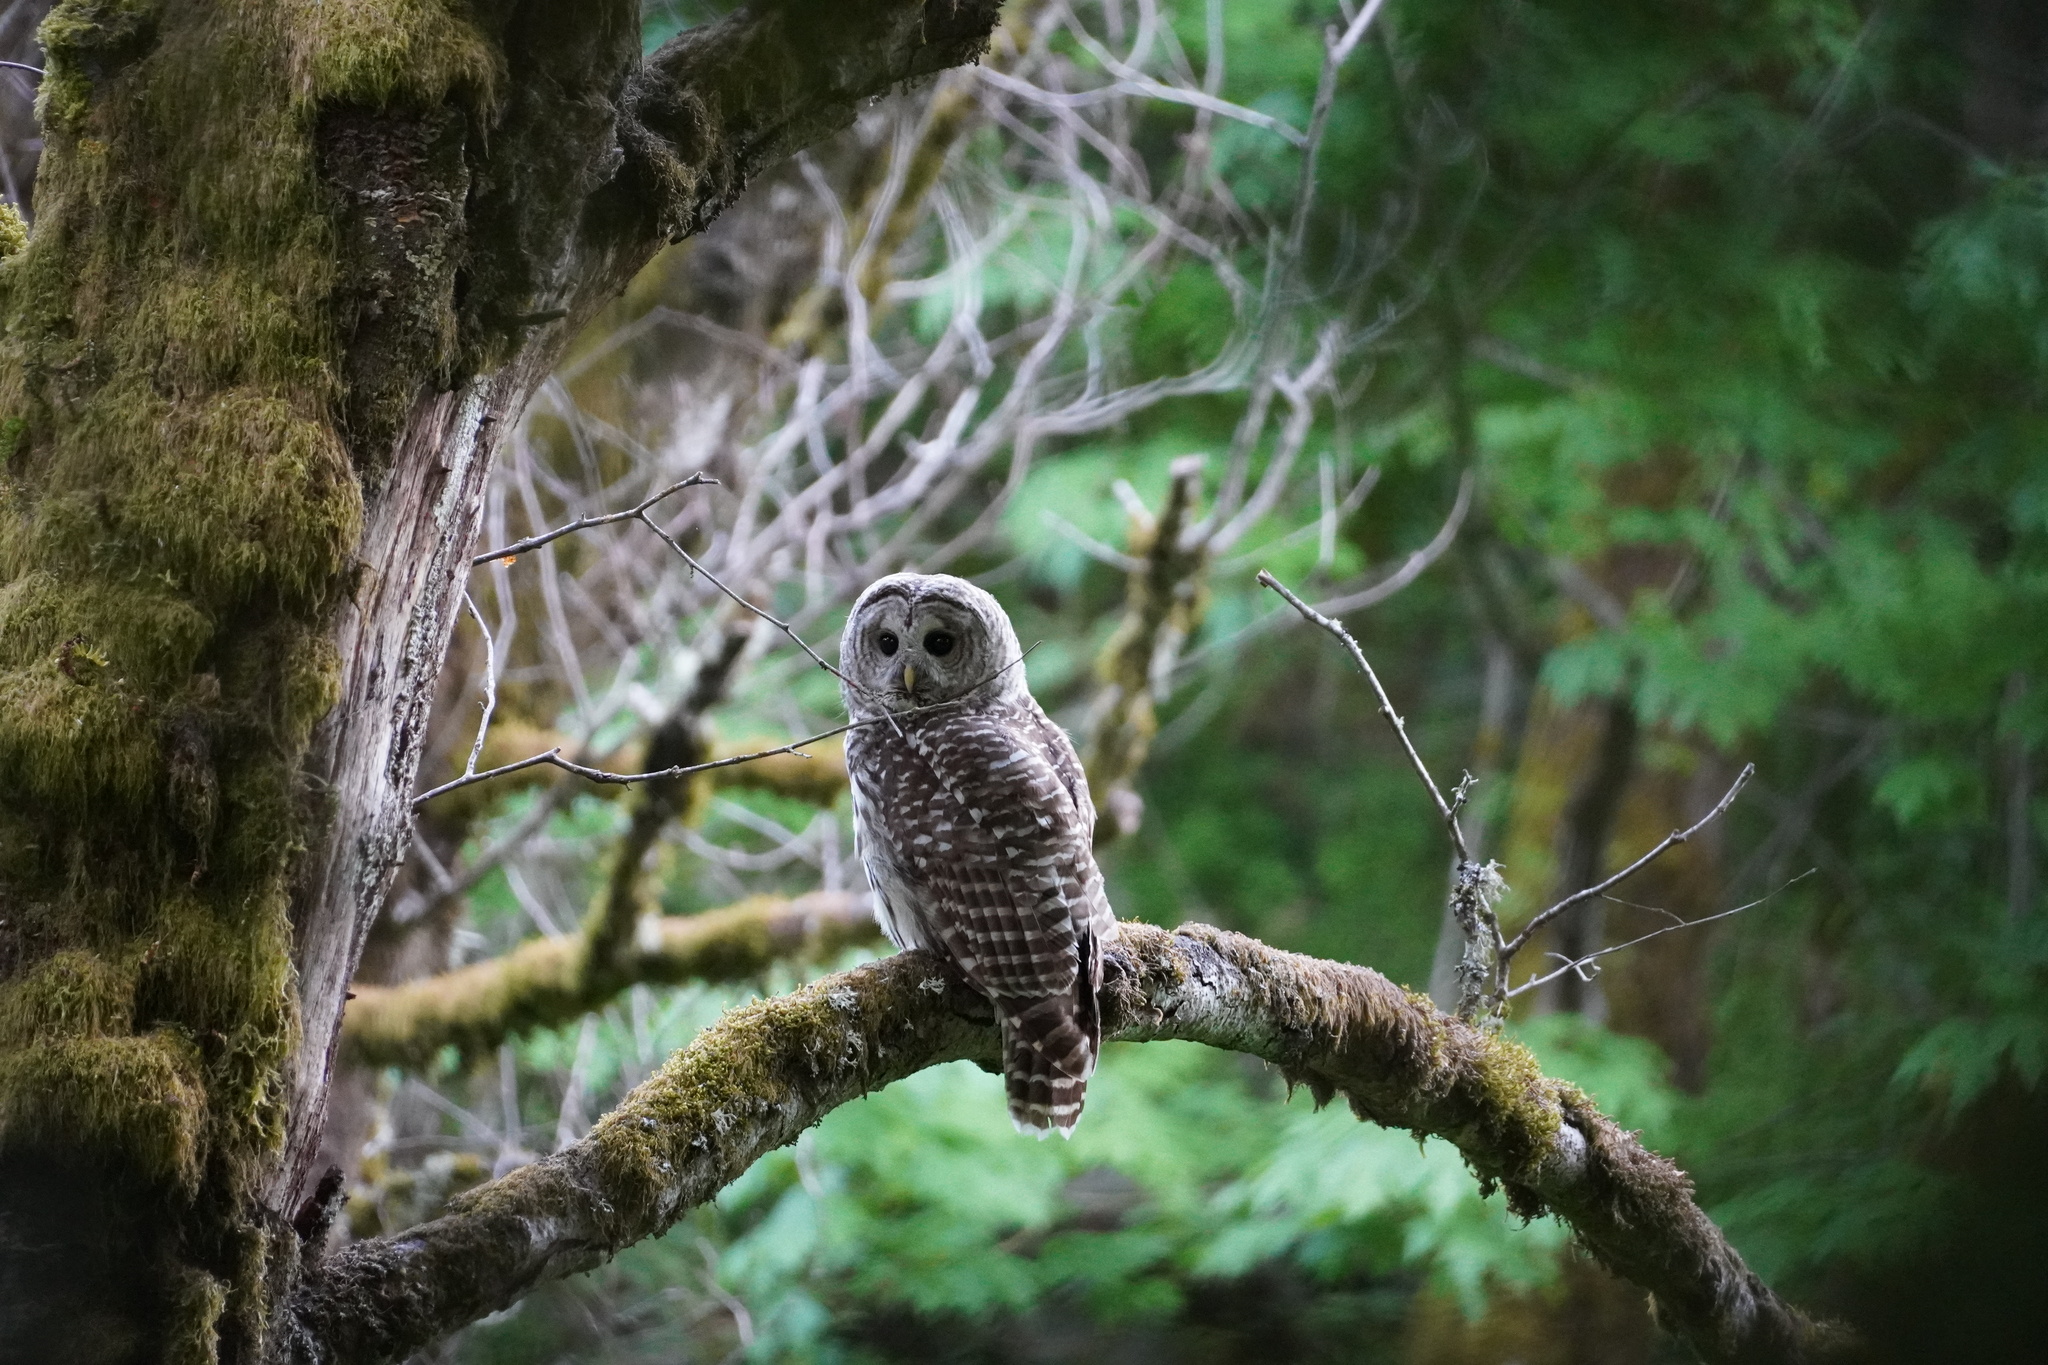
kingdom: Animalia
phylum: Chordata
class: Aves
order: Strigiformes
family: Strigidae
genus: Strix
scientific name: Strix varia
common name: Barred owl
